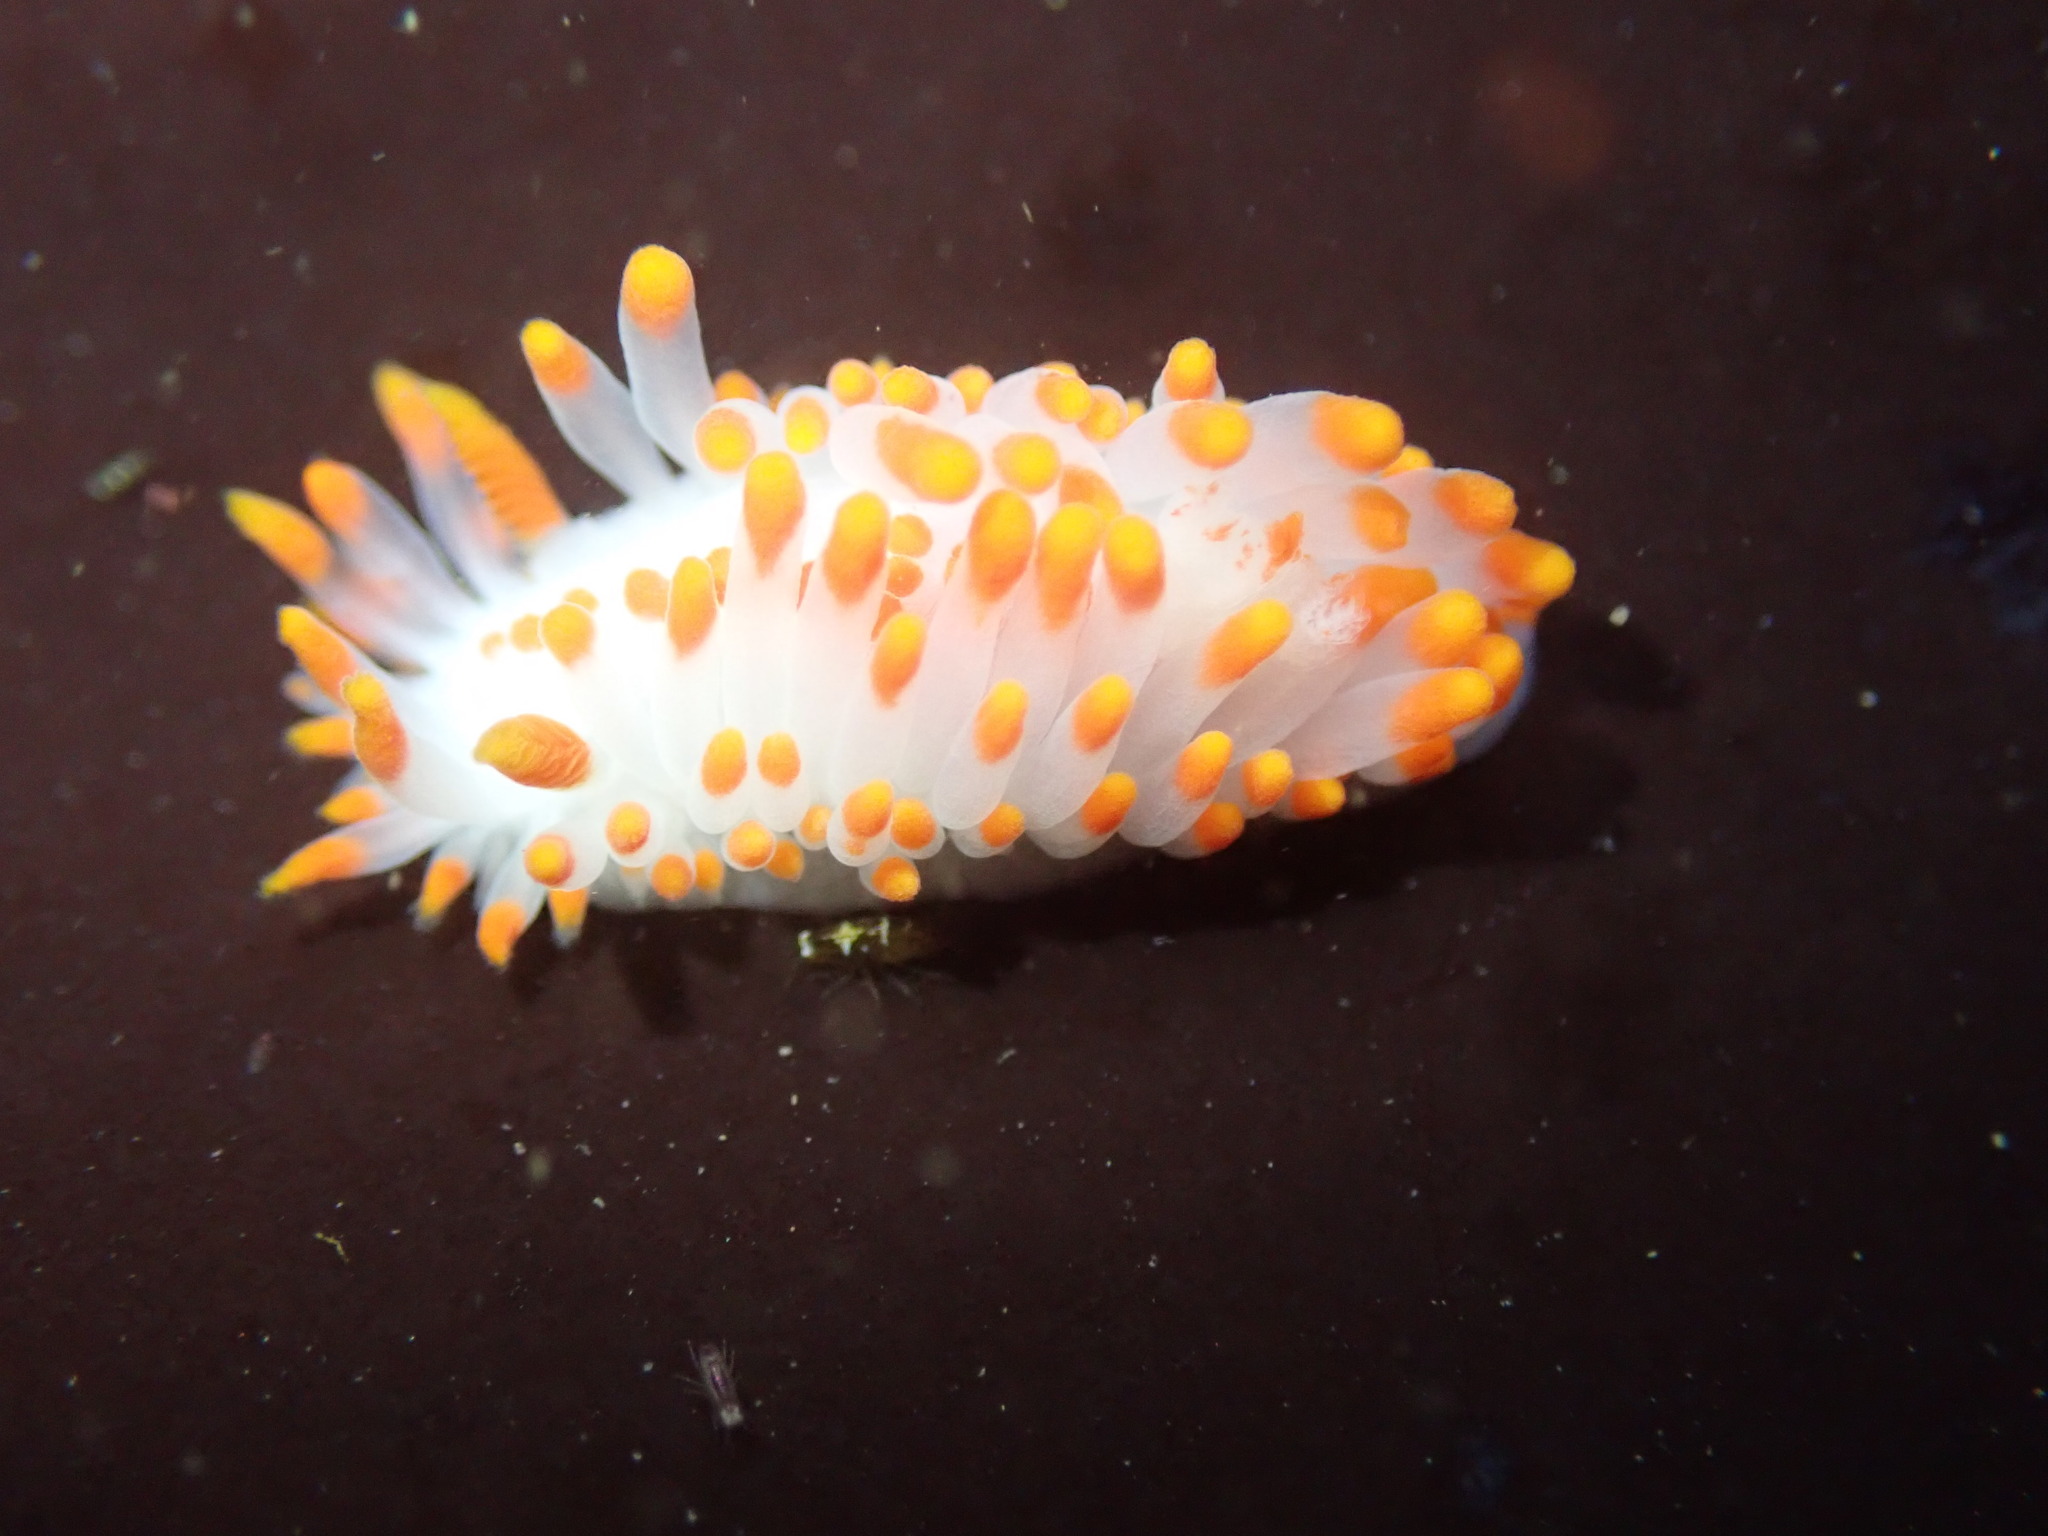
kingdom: Animalia
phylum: Mollusca
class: Gastropoda
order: Nudibranchia
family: Polyceridae
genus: Limacia
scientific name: Limacia mcdonaldi
